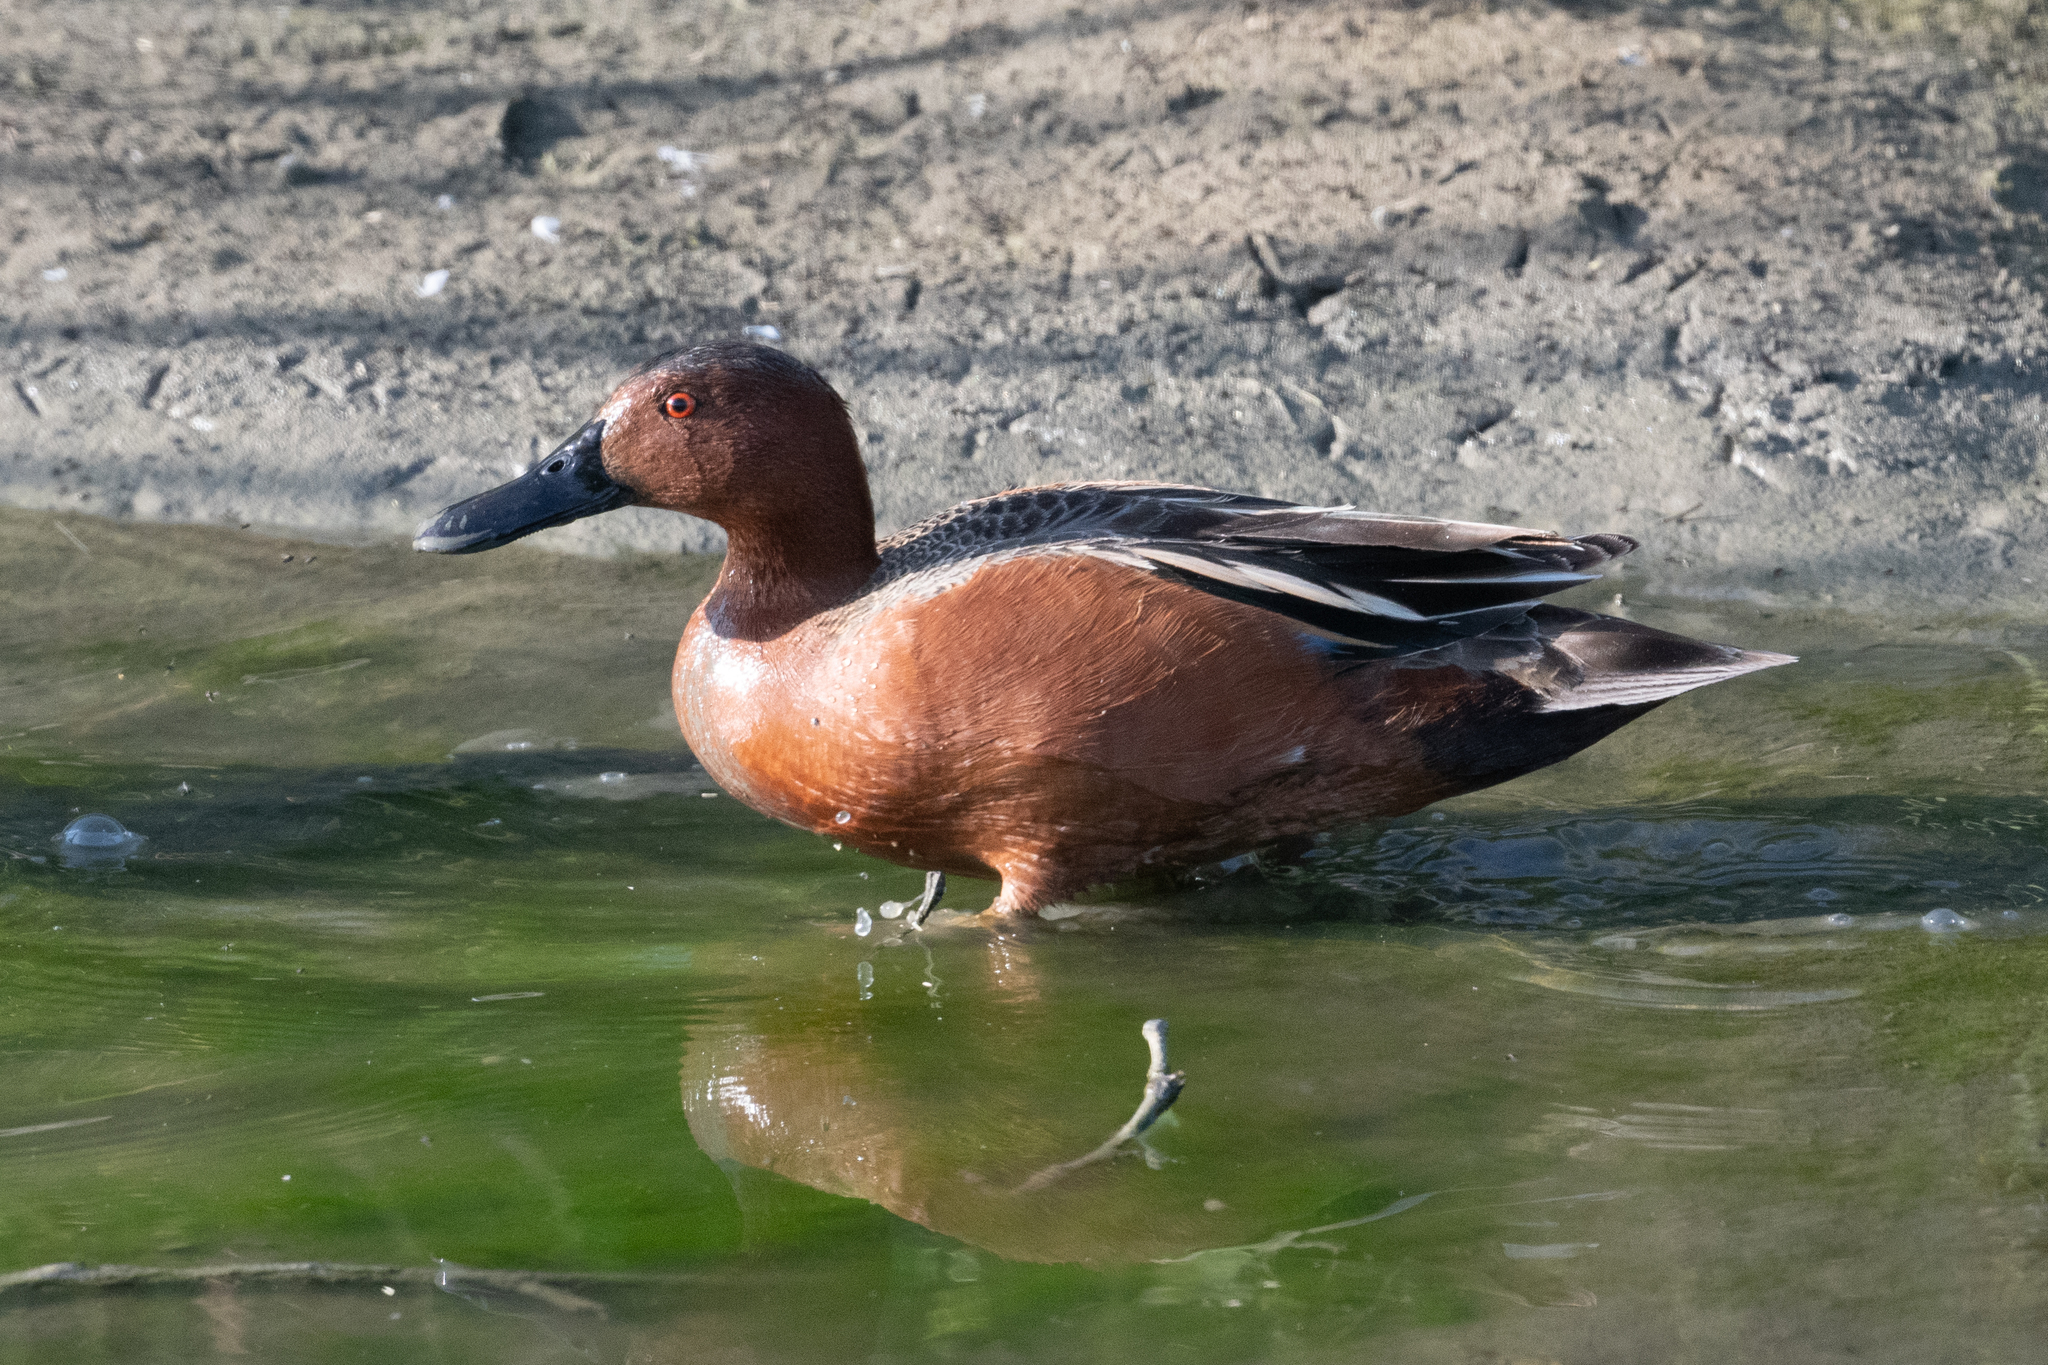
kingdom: Animalia
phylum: Chordata
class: Aves
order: Anseriformes
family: Anatidae
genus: Spatula
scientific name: Spatula cyanoptera
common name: Cinnamon teal
